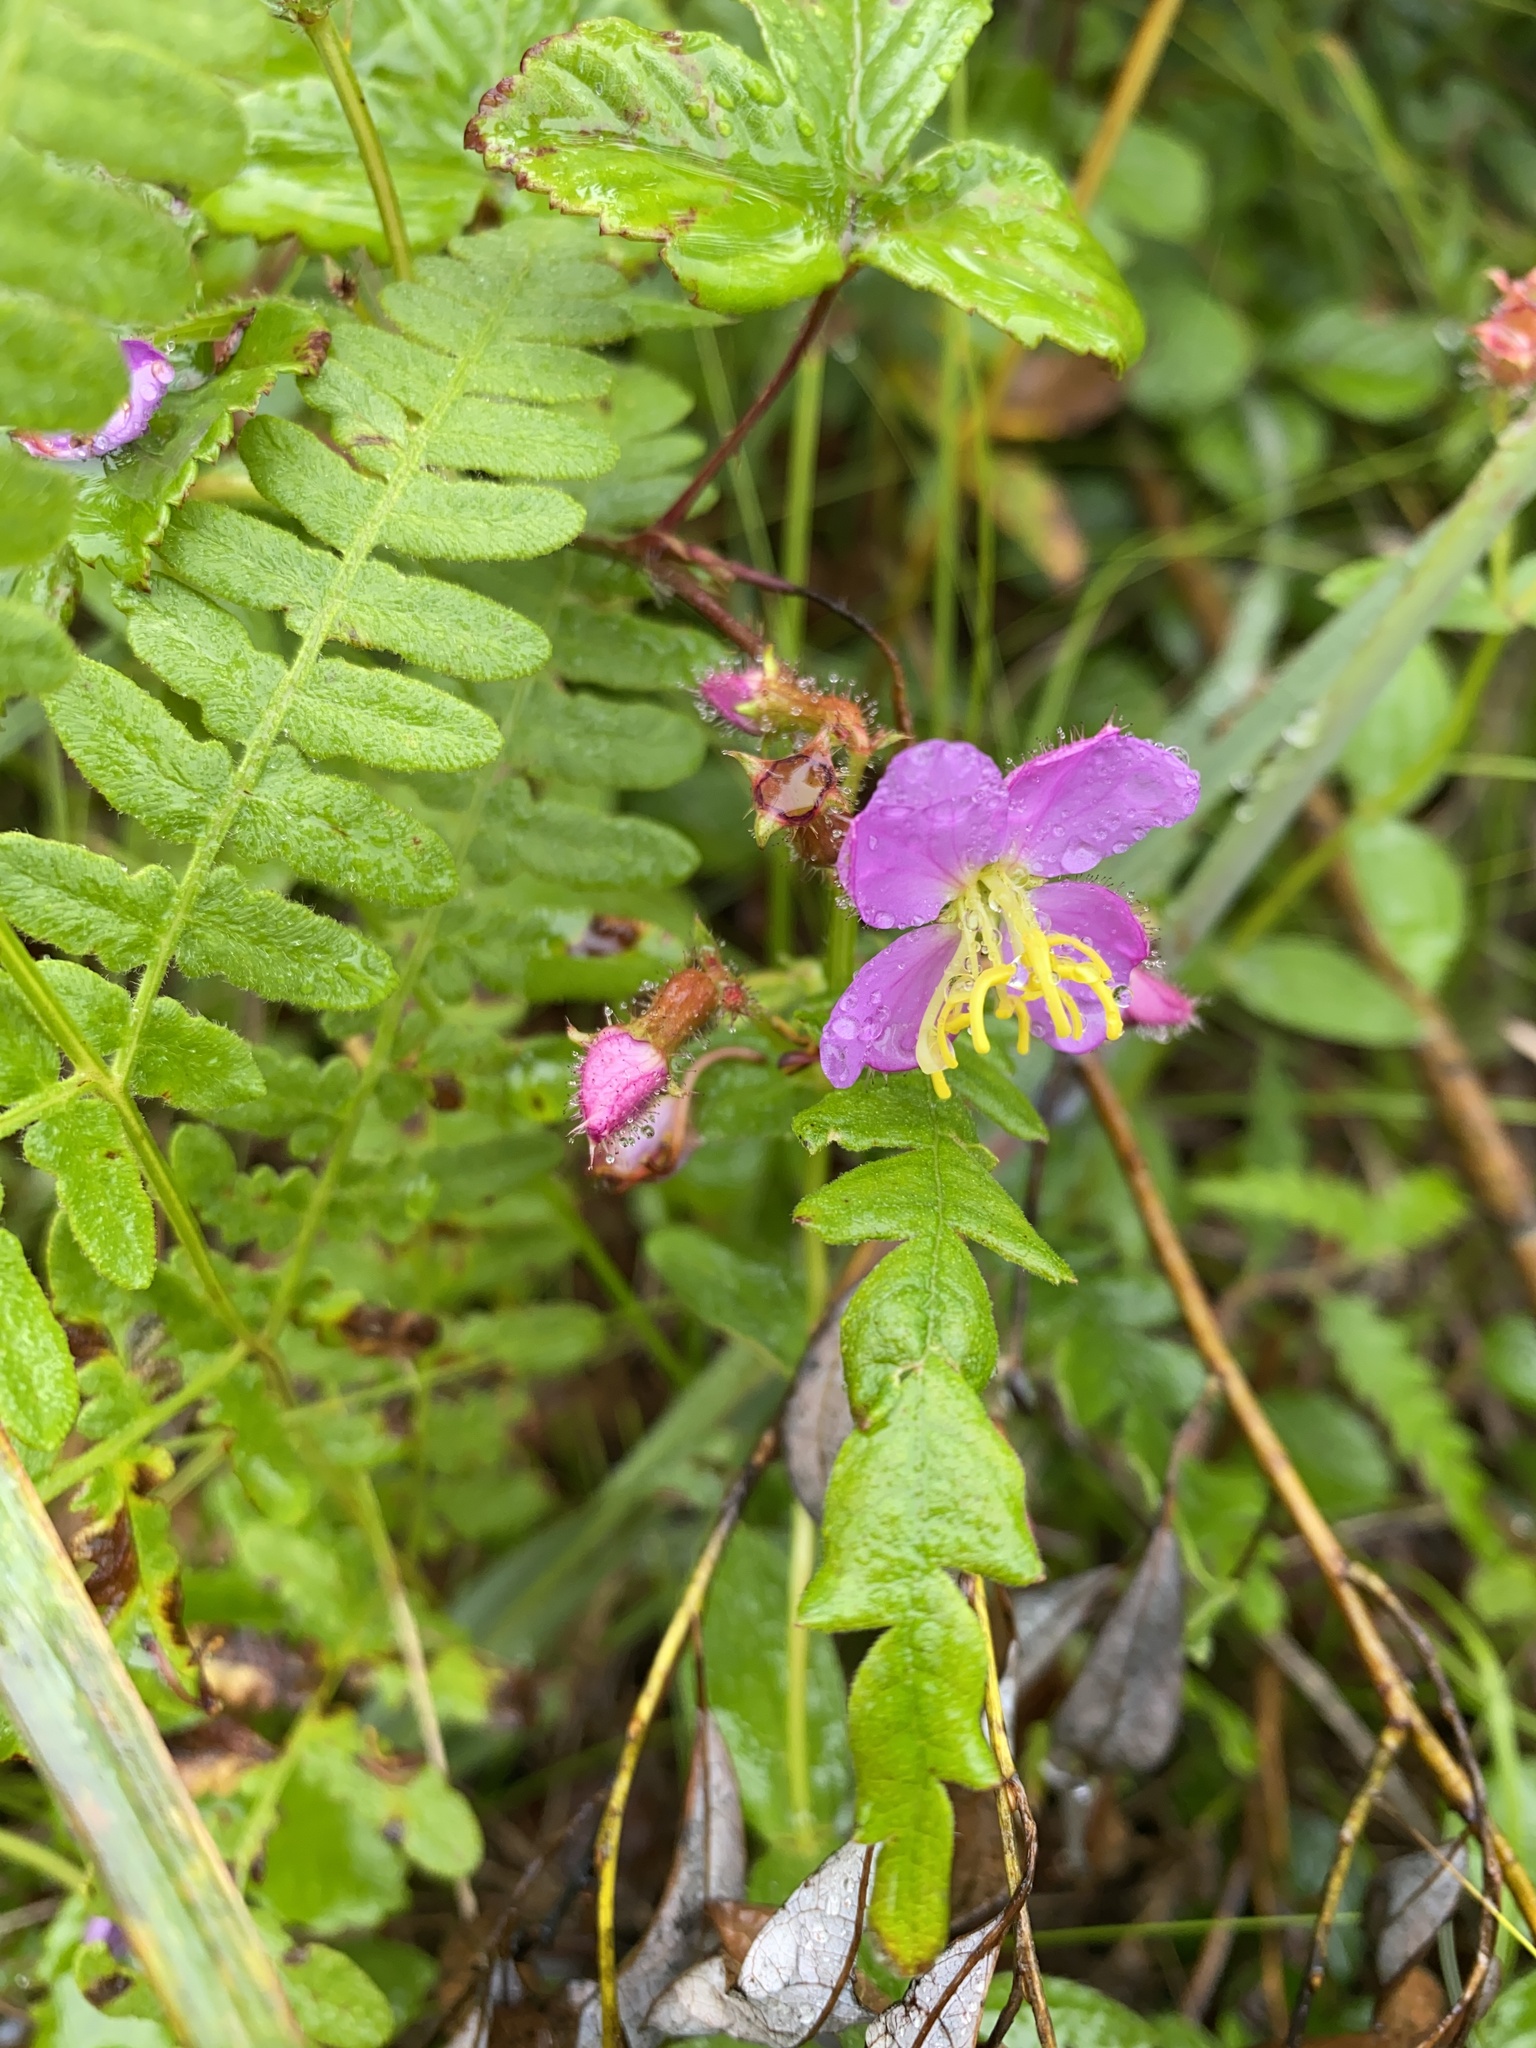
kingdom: Plantae
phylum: Tracheophyta
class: Magnoliopsida
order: Myrtales
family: Melastomataceae
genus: Rhexia
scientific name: Rhexia virginica
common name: Common meadow beauty
